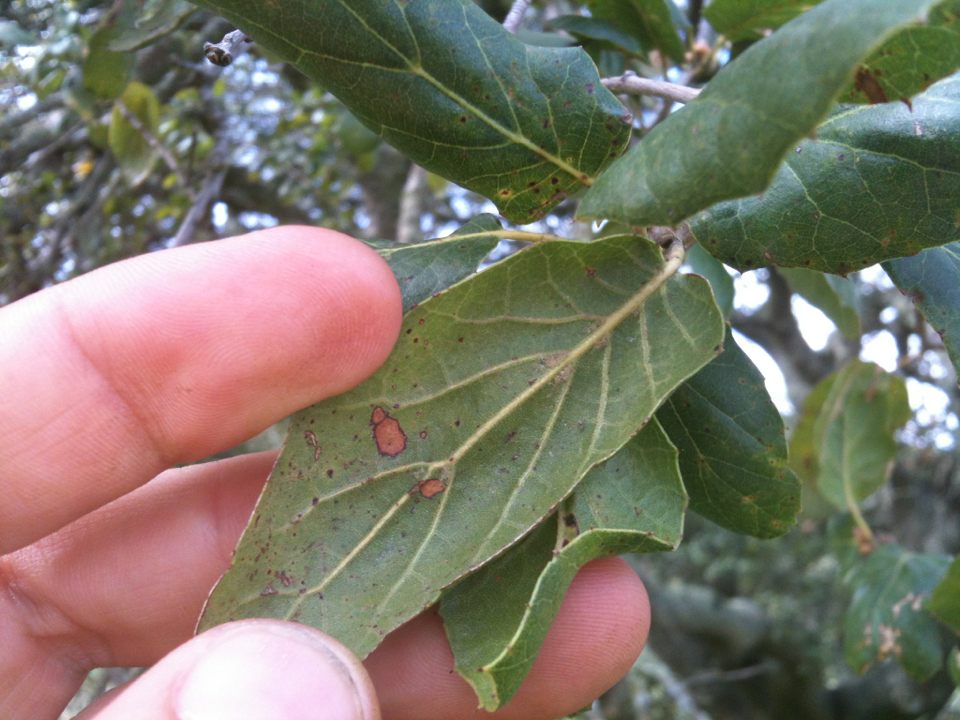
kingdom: Plantae
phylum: Tracheophyta
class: Magnoliopsida
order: Fagales
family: Fagaceae
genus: Quercus
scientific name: Quercus agrifolia
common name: California live oak
